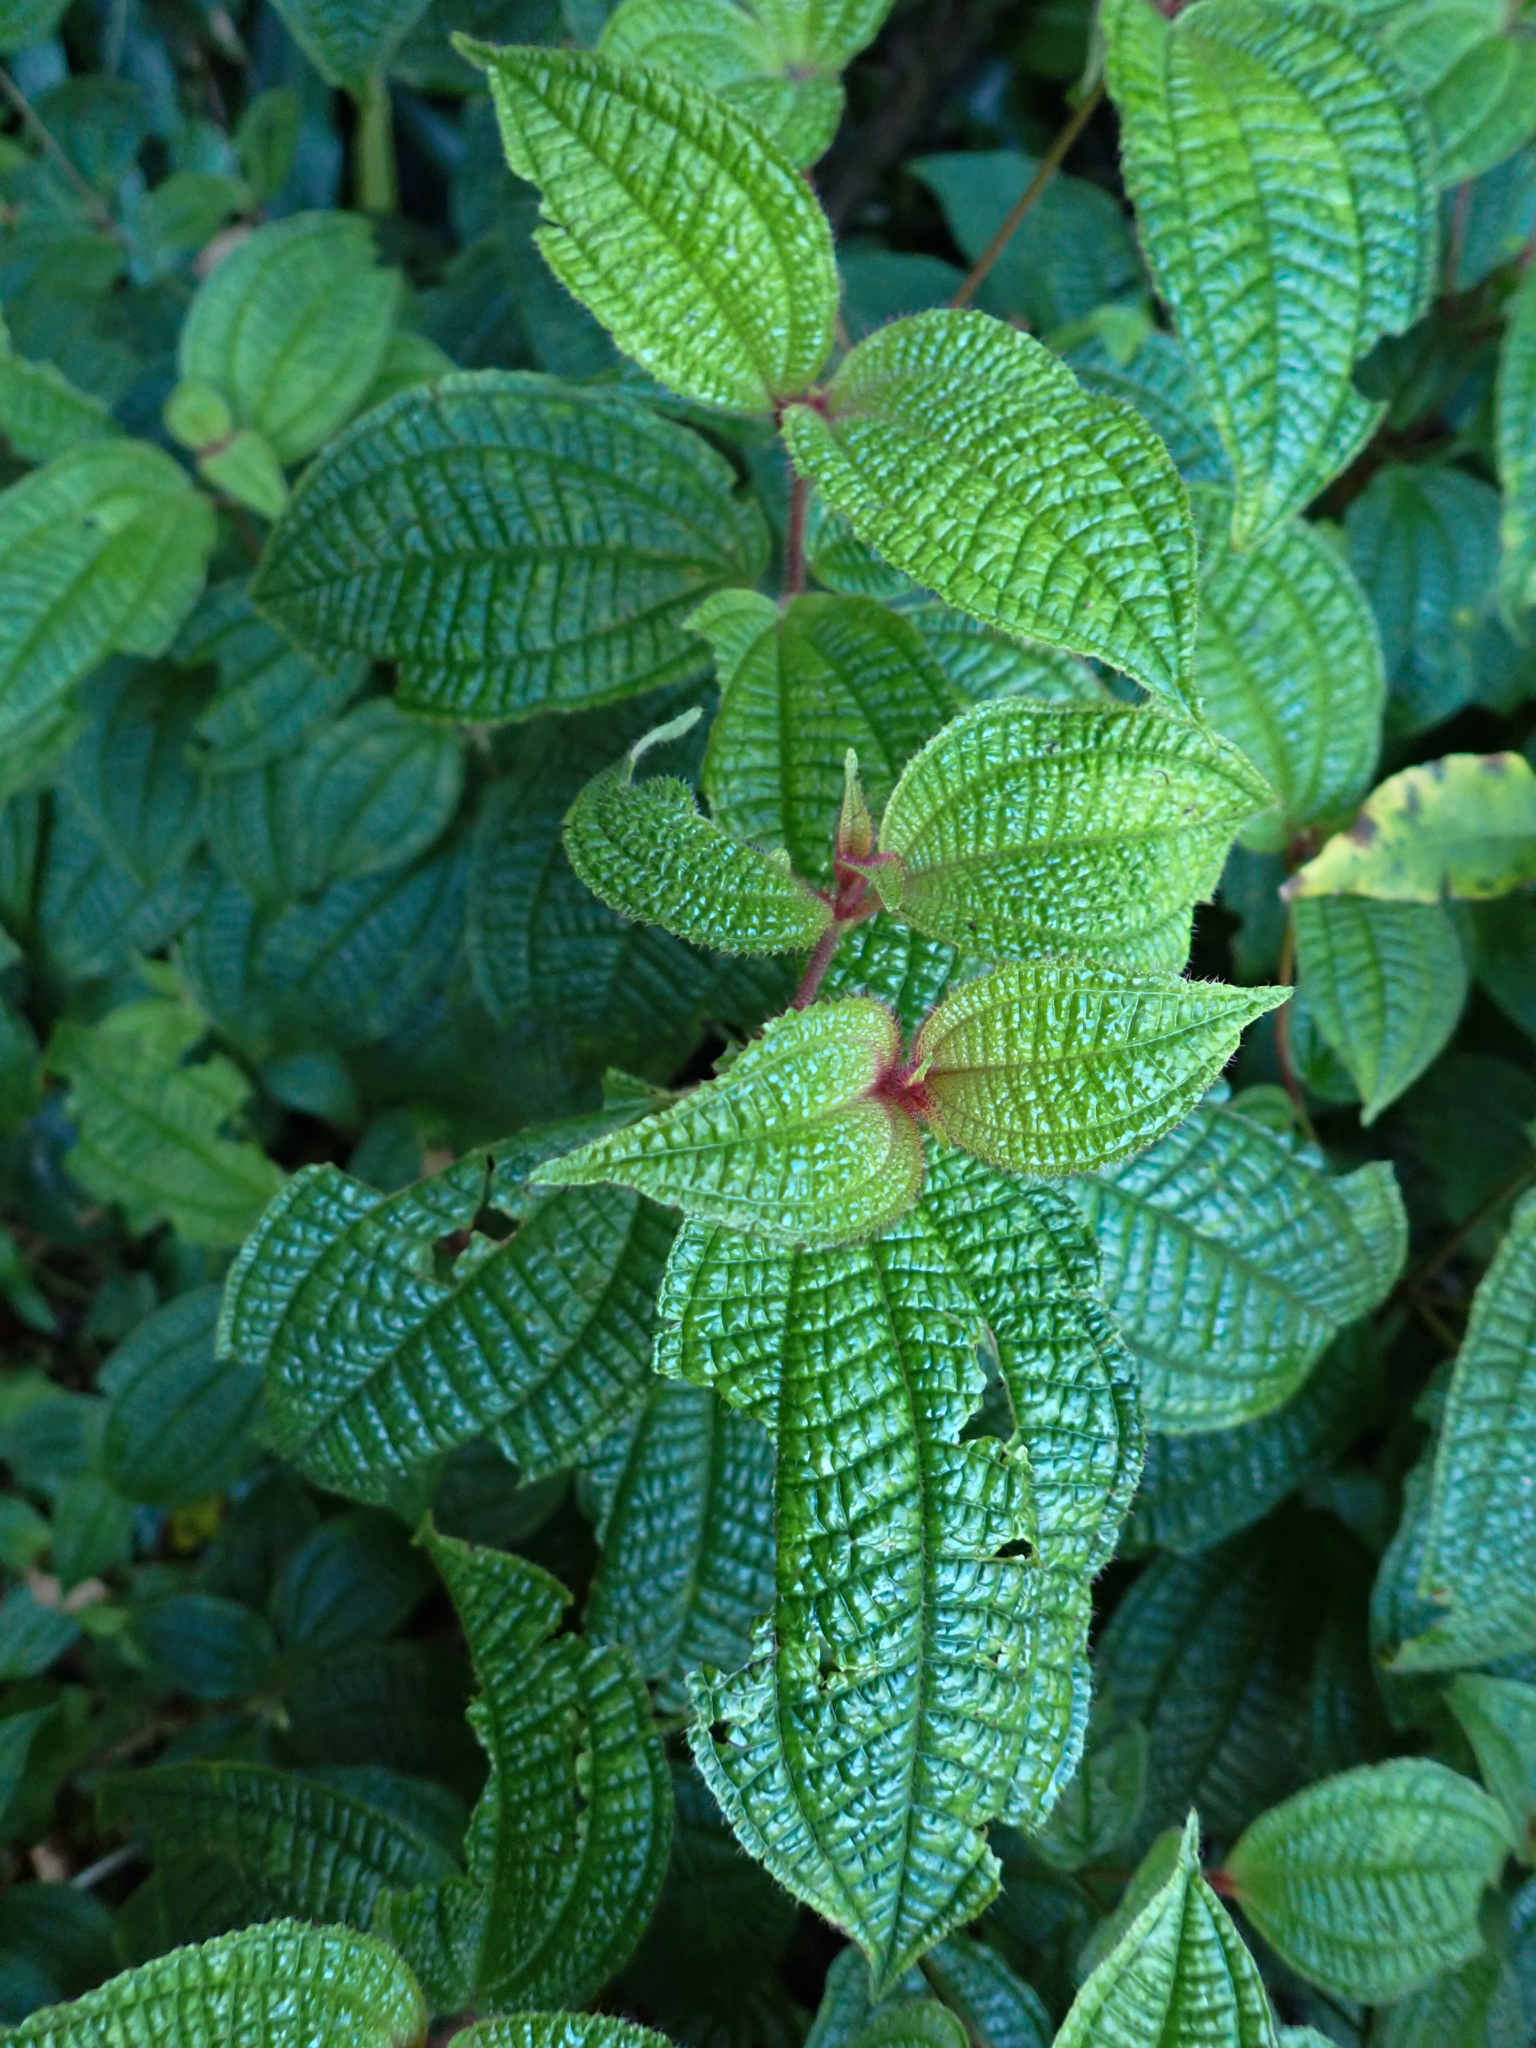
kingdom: Plantae
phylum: Tracheophyta
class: Magnoliopsida
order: Myrtales
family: Melastomataceae
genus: Miconia
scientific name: Miconia crenata
